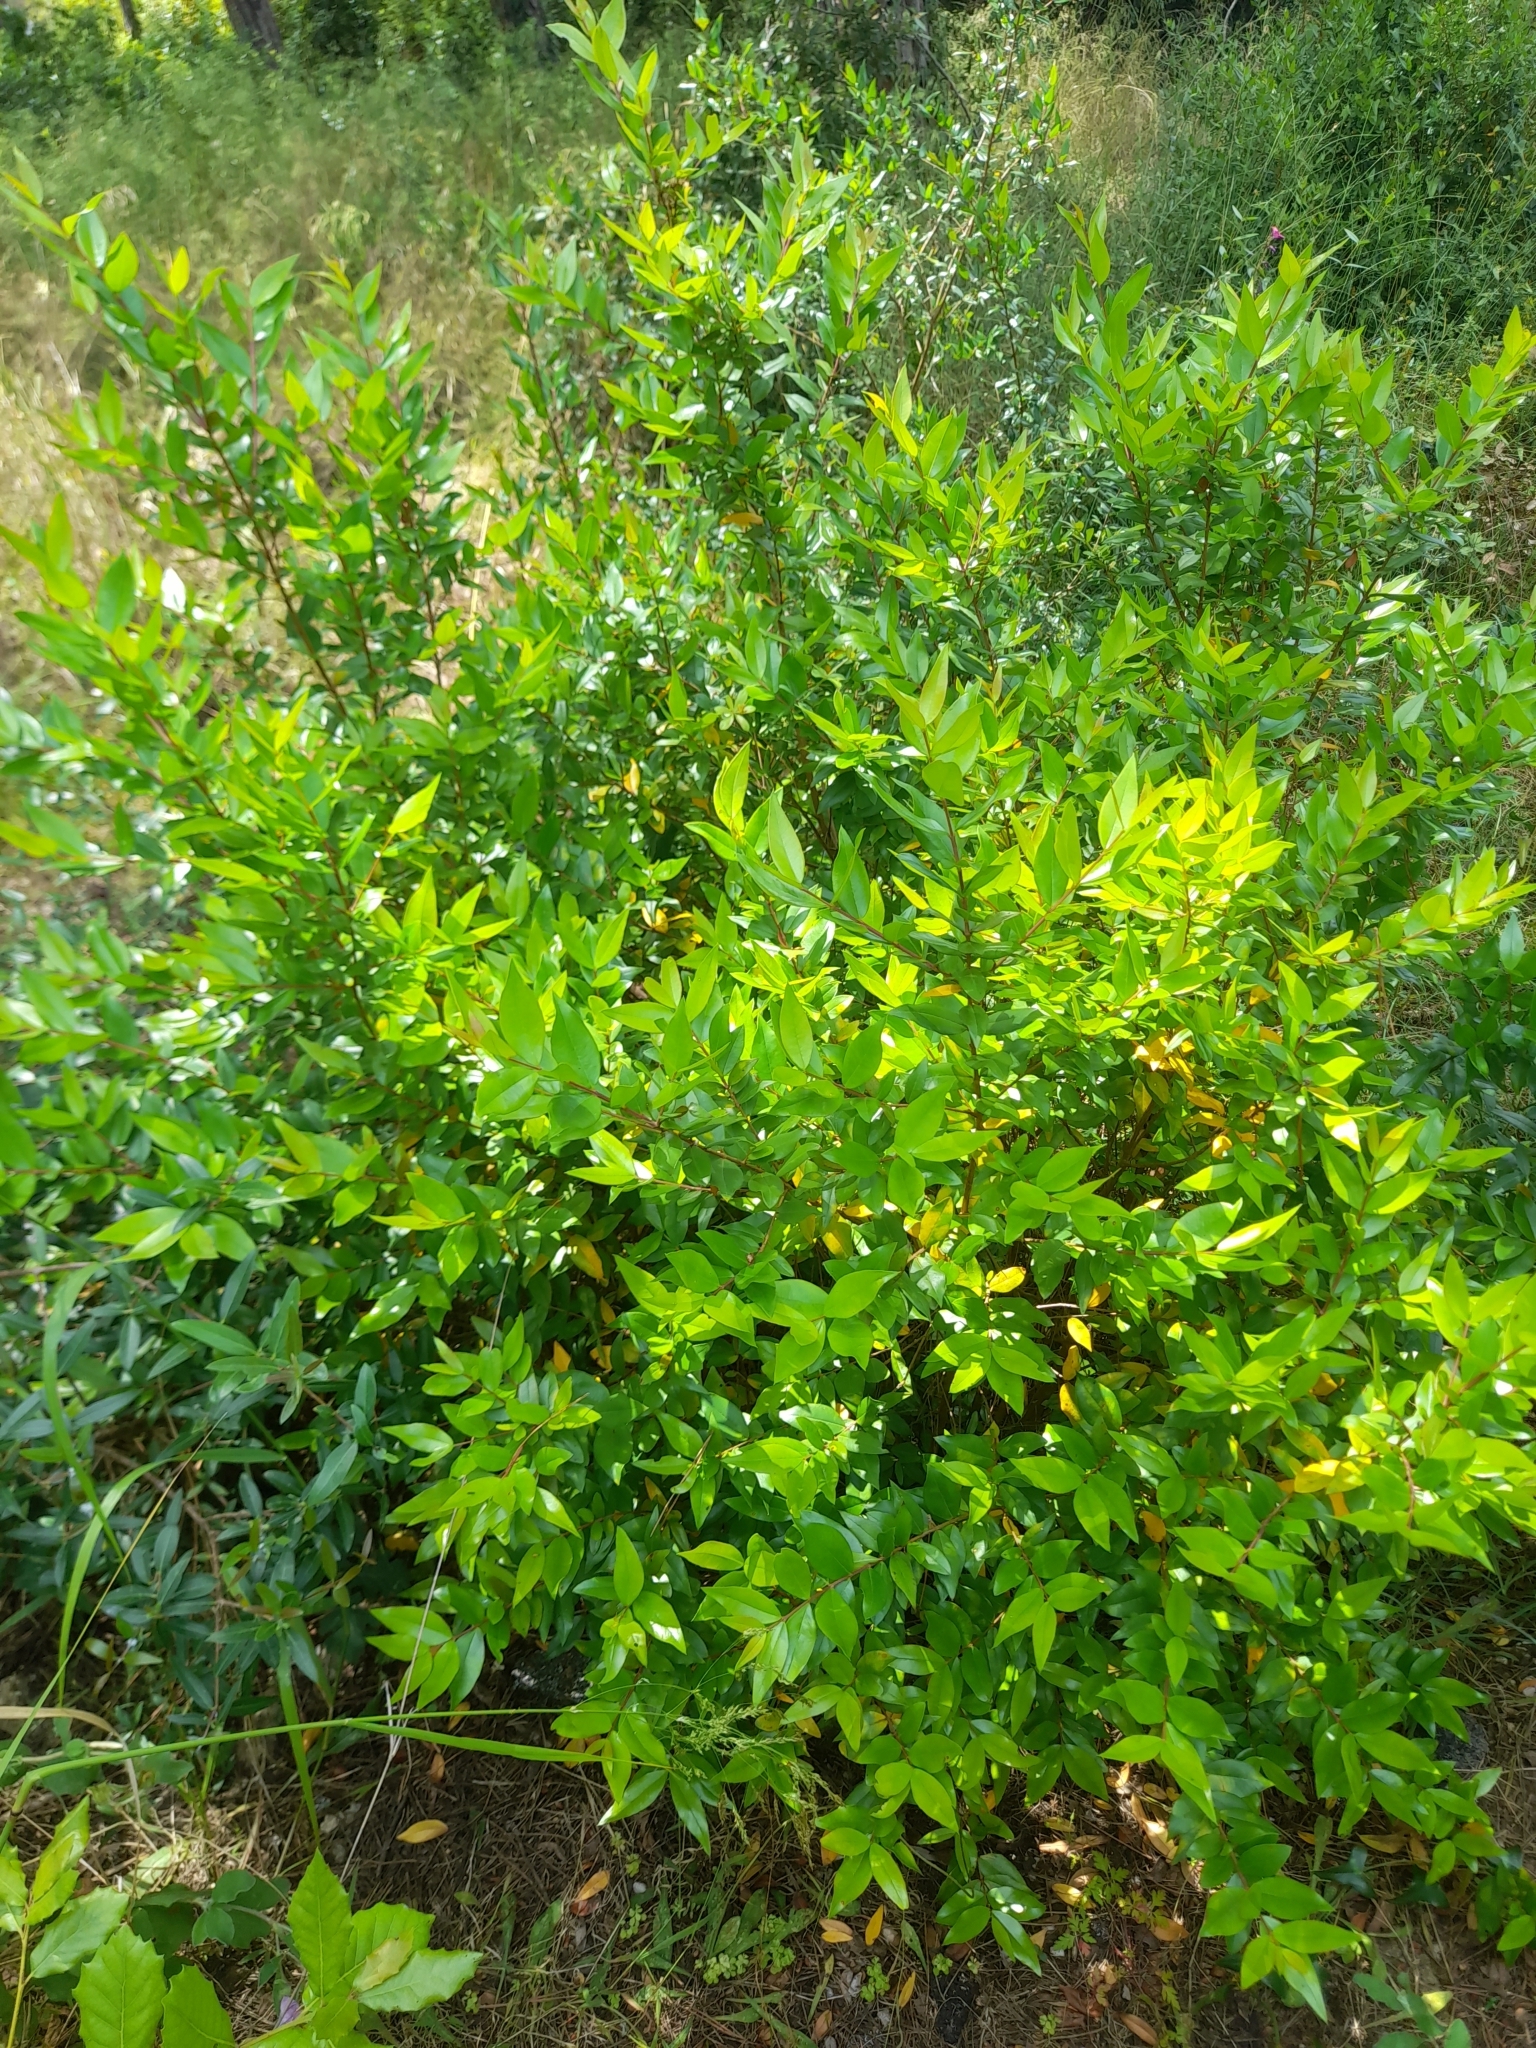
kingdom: Plantae
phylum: Tracheophyta
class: Magnoliopsida
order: Myrtales
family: Myrtaceae
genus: Myrtus
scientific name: Myrtus communis
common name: Myrtle
